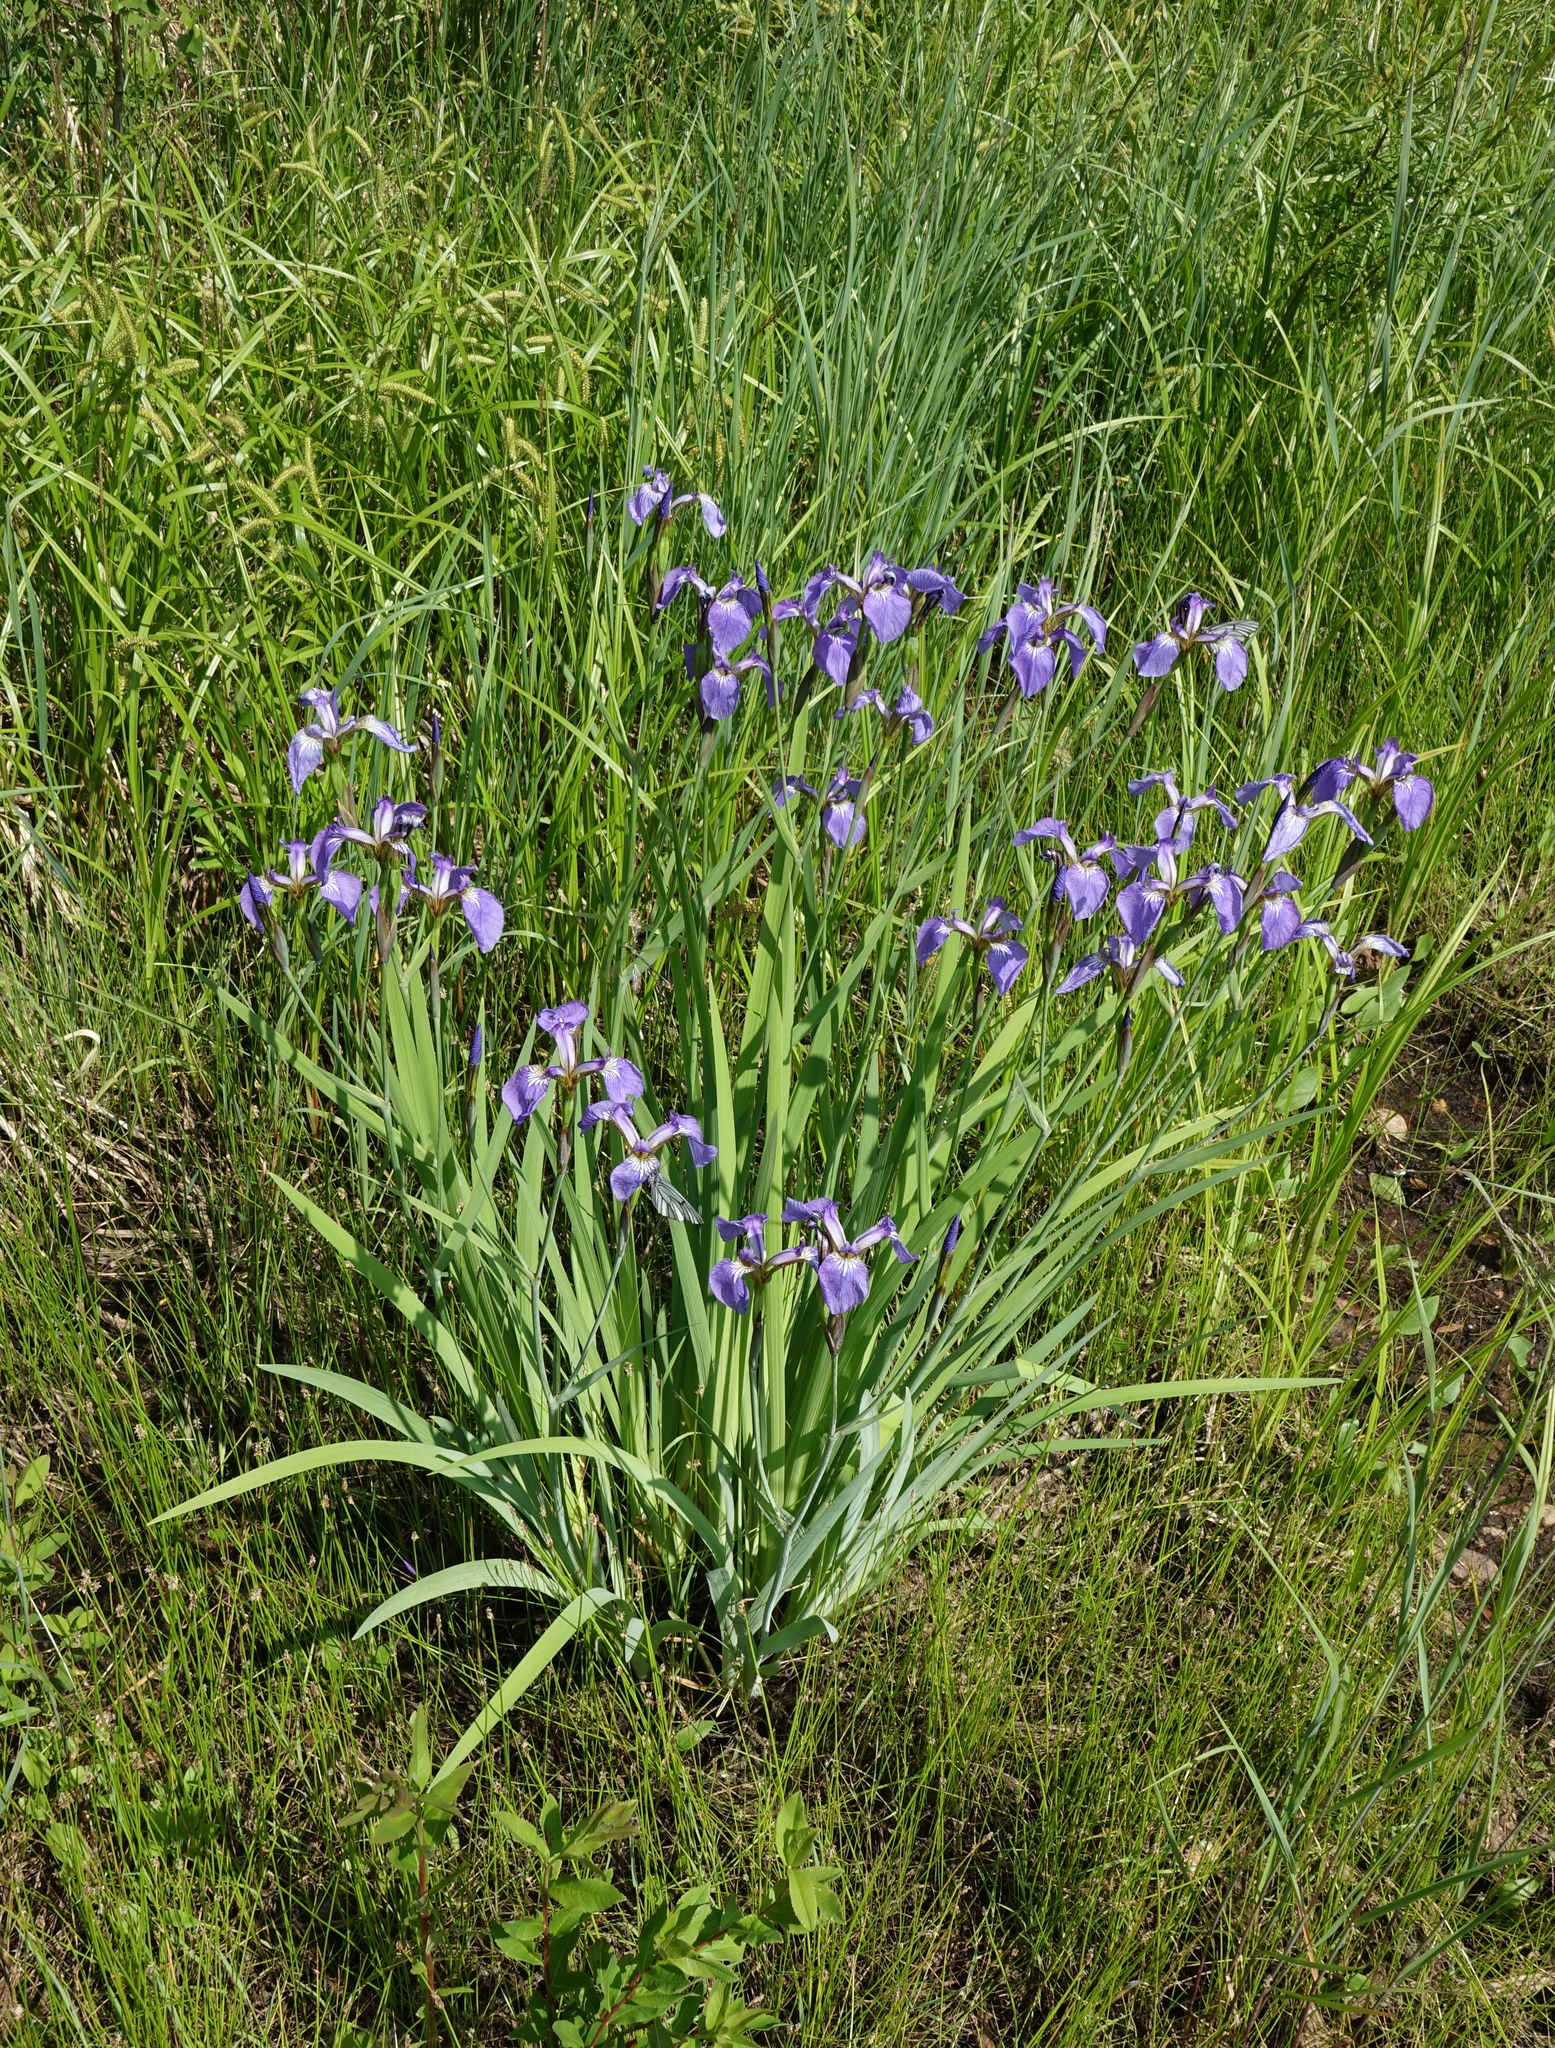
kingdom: Plantae
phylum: Tracheophyta
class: Liliopsida
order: Asparagales
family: Iridaceae
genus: Iris
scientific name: Iris setosa
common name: Arctic blue flag
